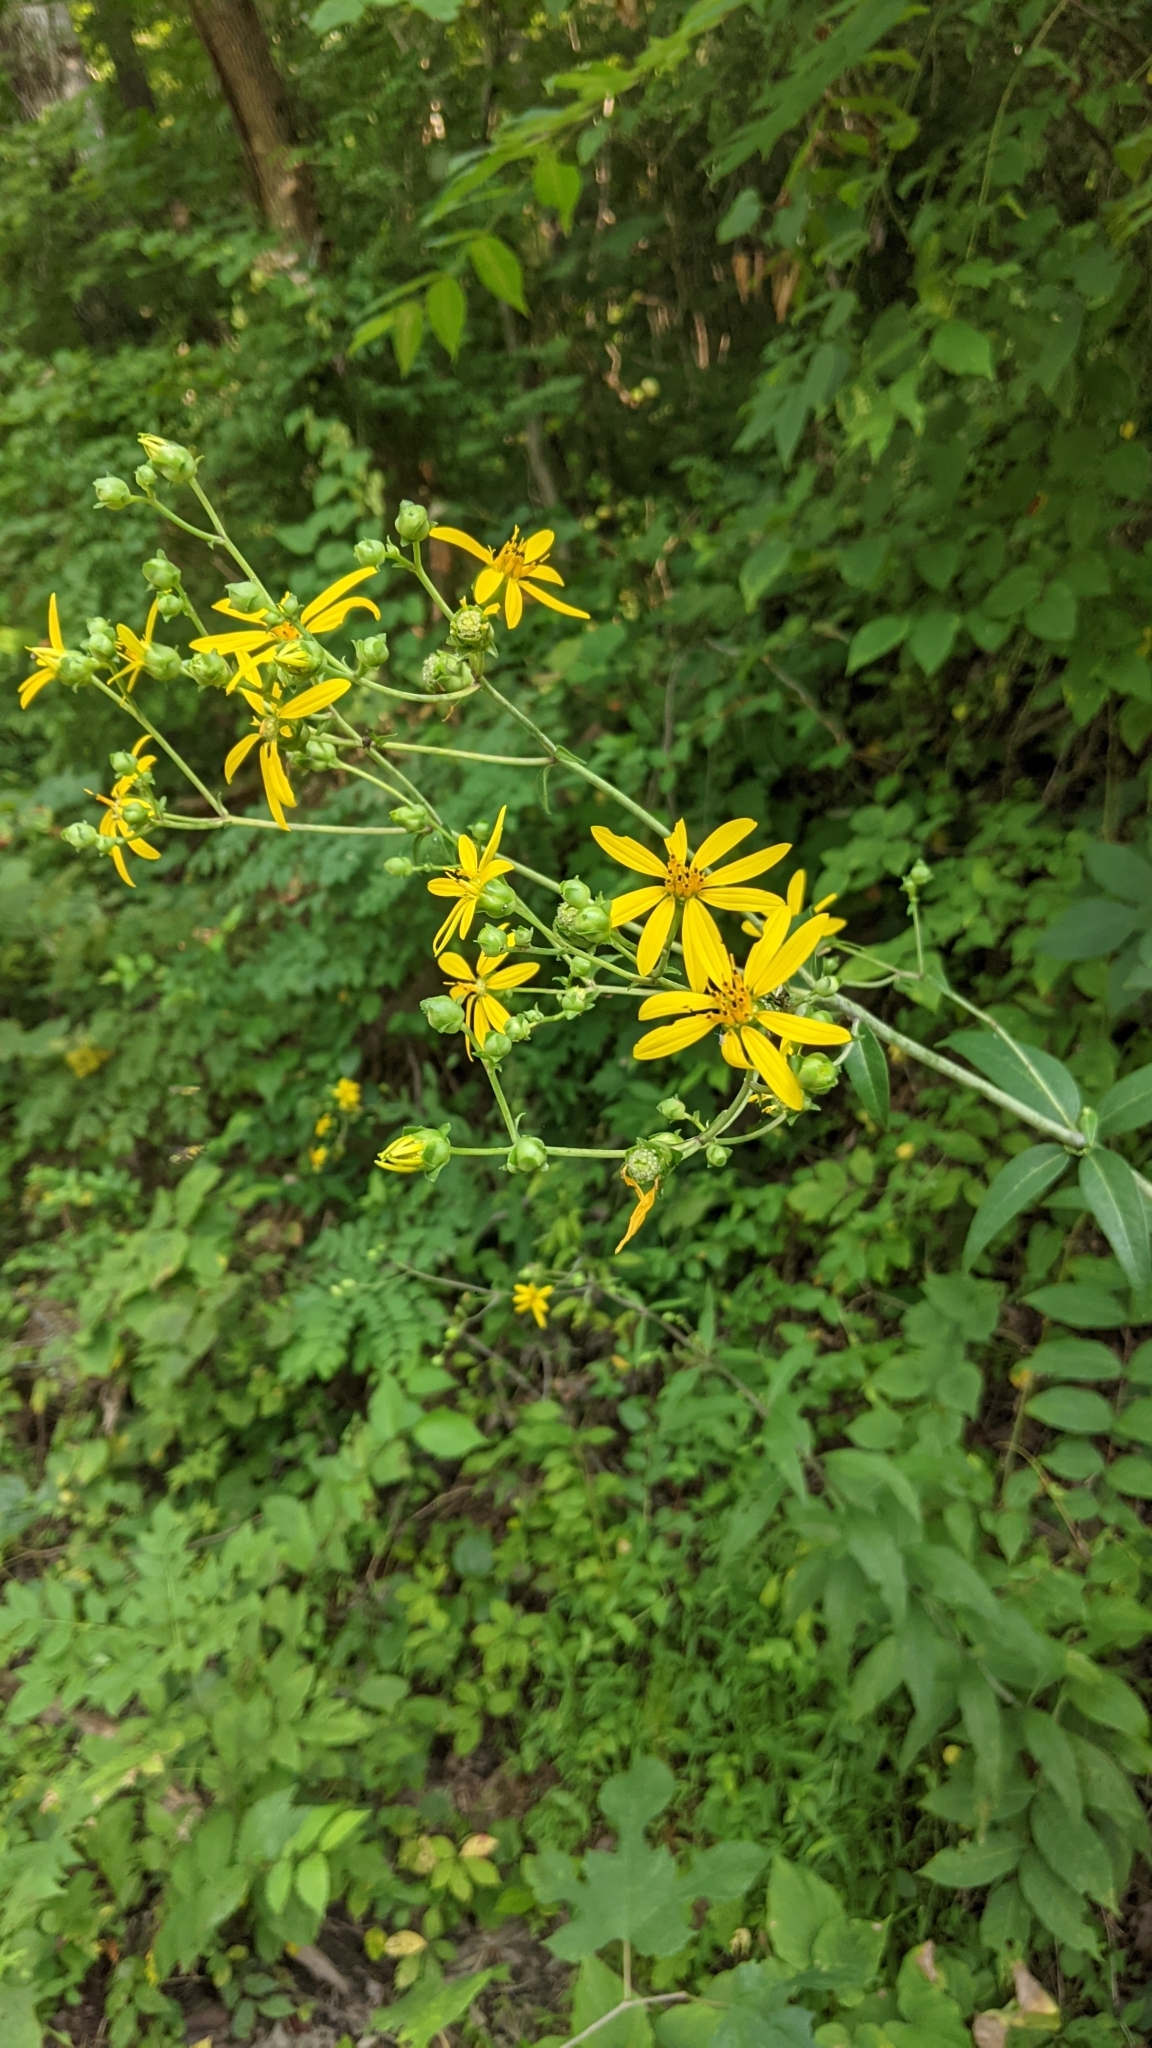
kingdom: Plantae
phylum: Tracheophyta
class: Magnoliopsida
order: Asterales
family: Asteraceae
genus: Silphium
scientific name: Silphium asteriscus
